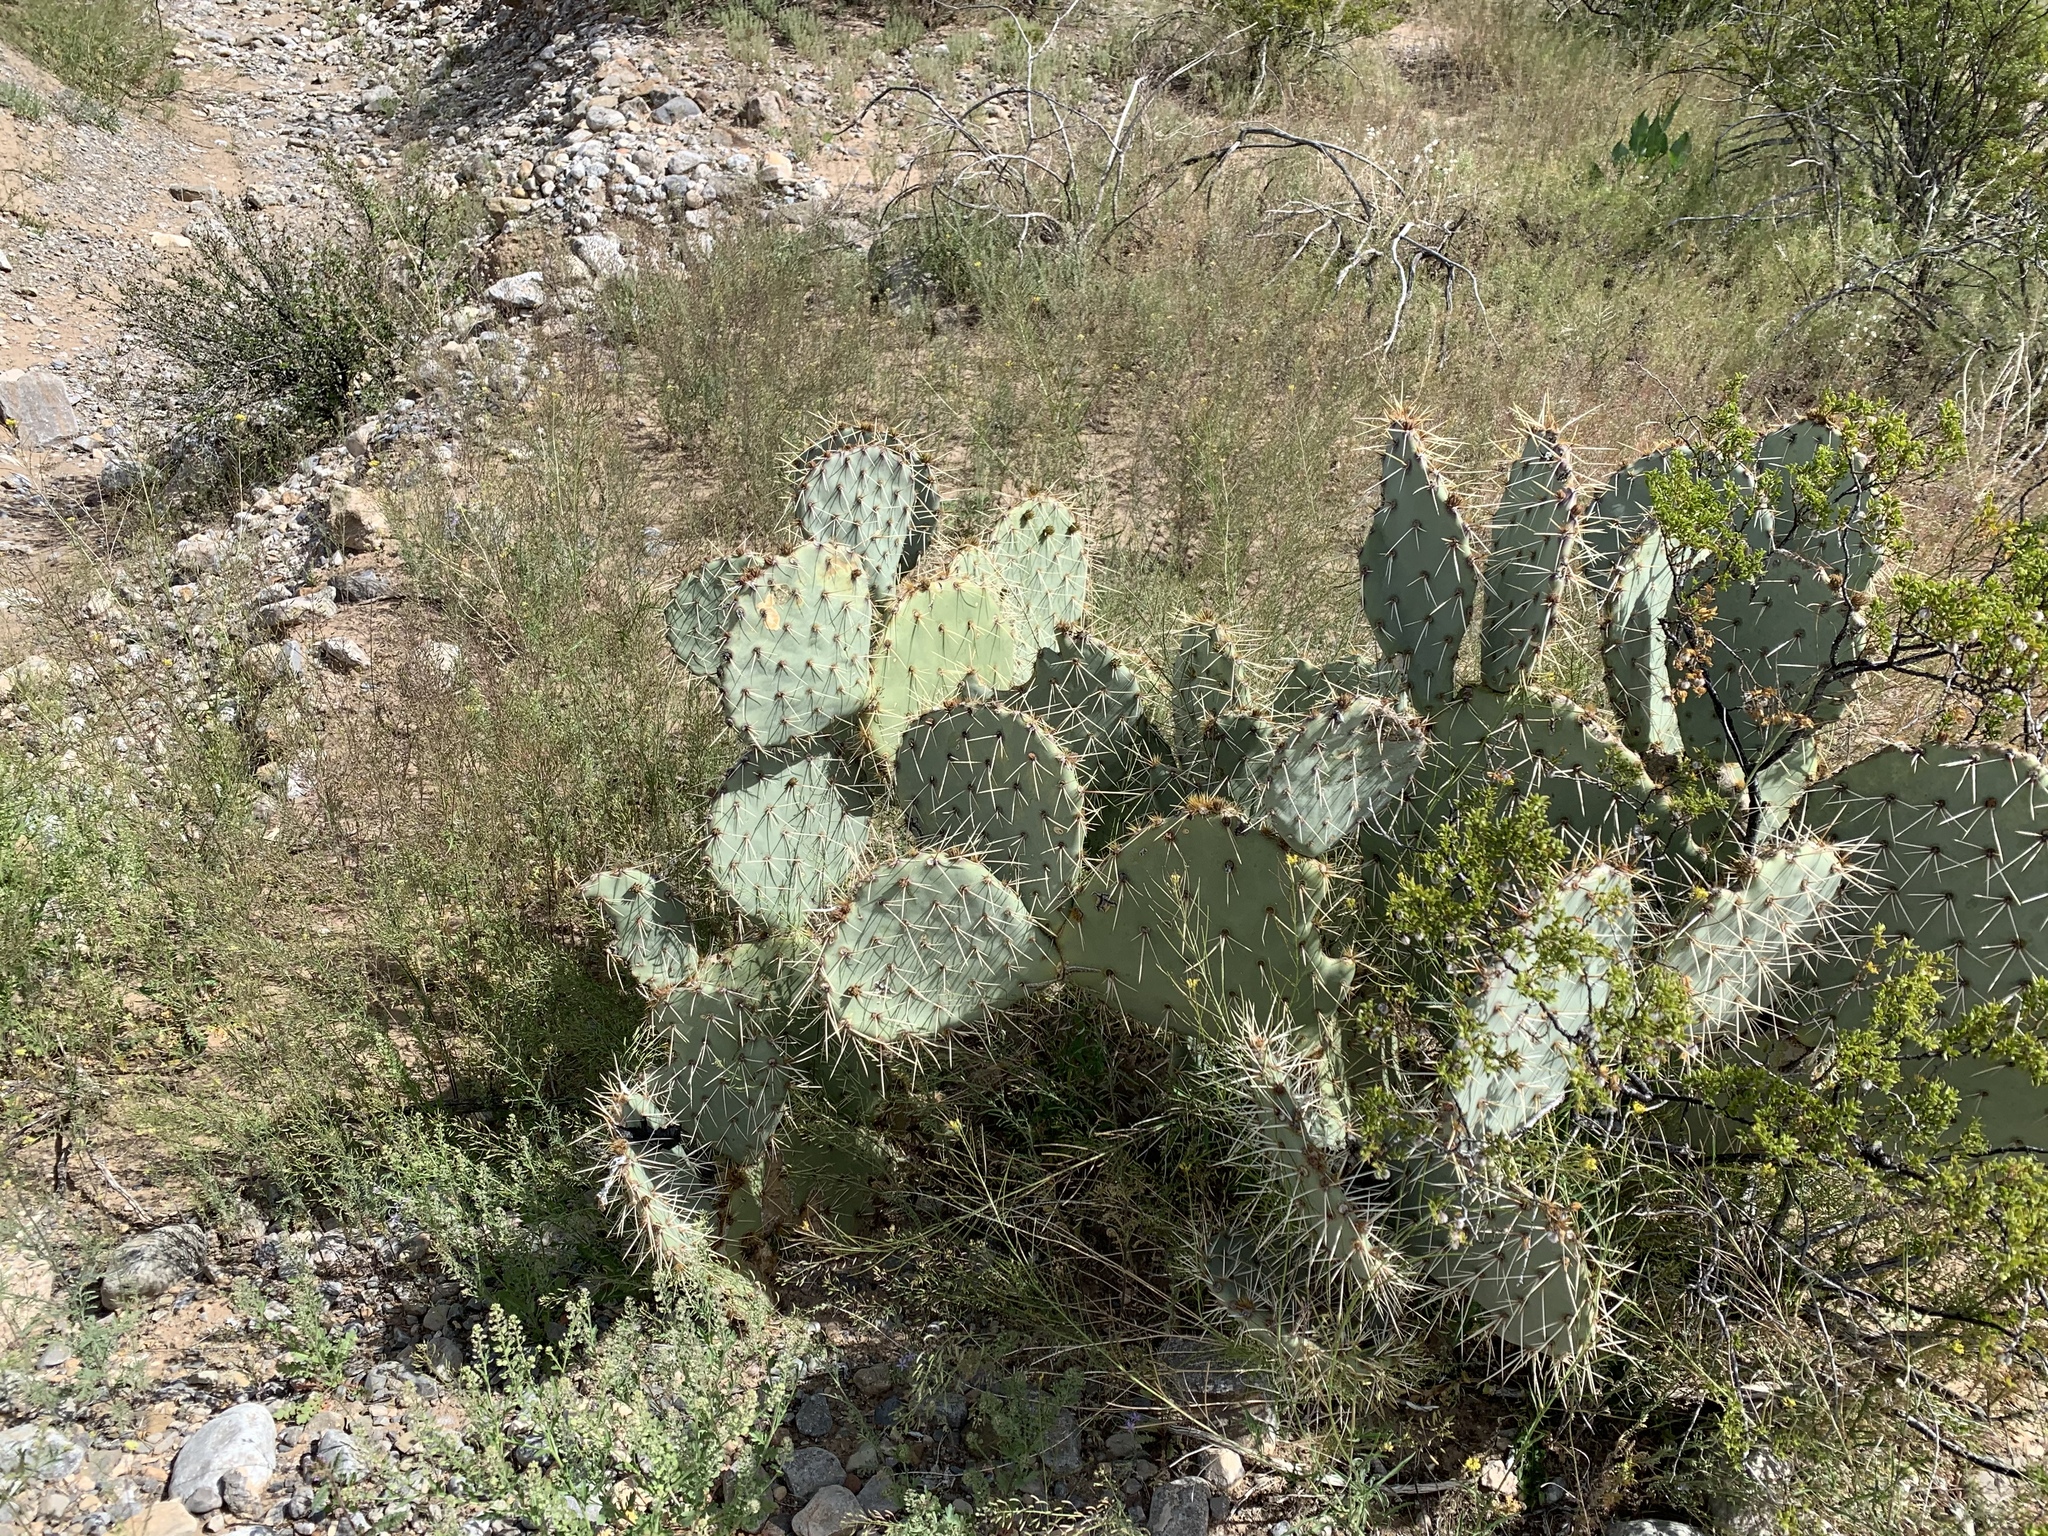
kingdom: Plantae
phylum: Tracheophyta
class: Magnoliopsida
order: Caryophyllales
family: Cactaceae
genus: Opuntia
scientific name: Opuntia engelmannii
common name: Cactus-apple
